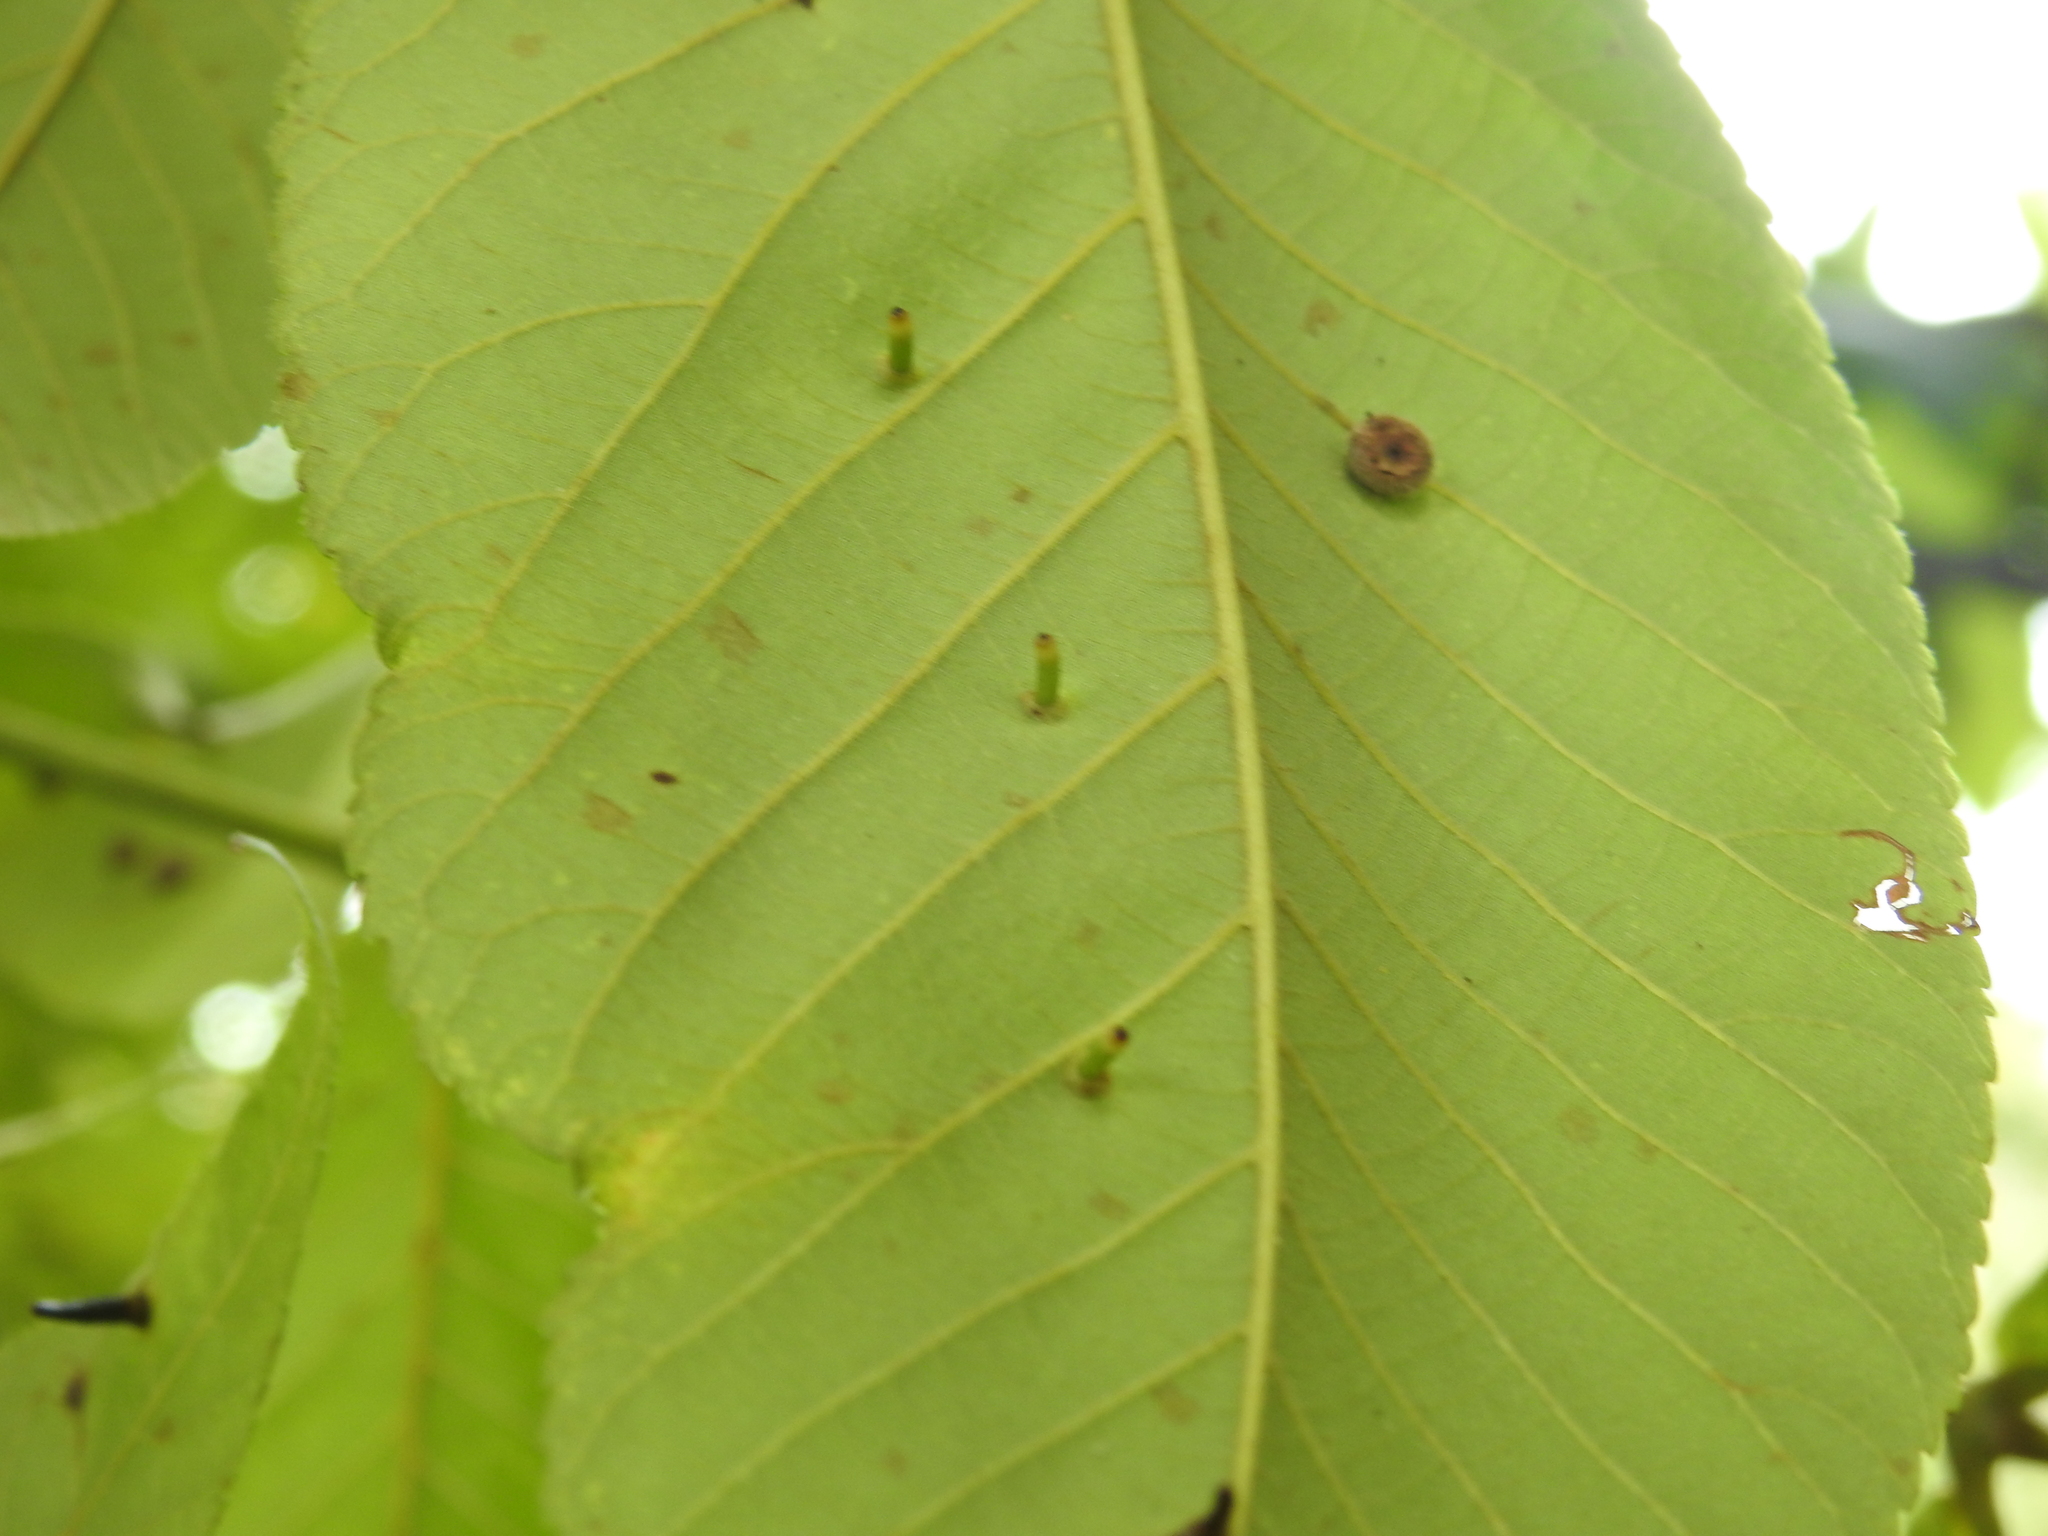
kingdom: Animalia
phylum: Arthropoda
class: Insecta
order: Diptera
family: Cecidomyiidae
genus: Caryomyia
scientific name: Caryomyia tubicola
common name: Hickory bullet gall midge
